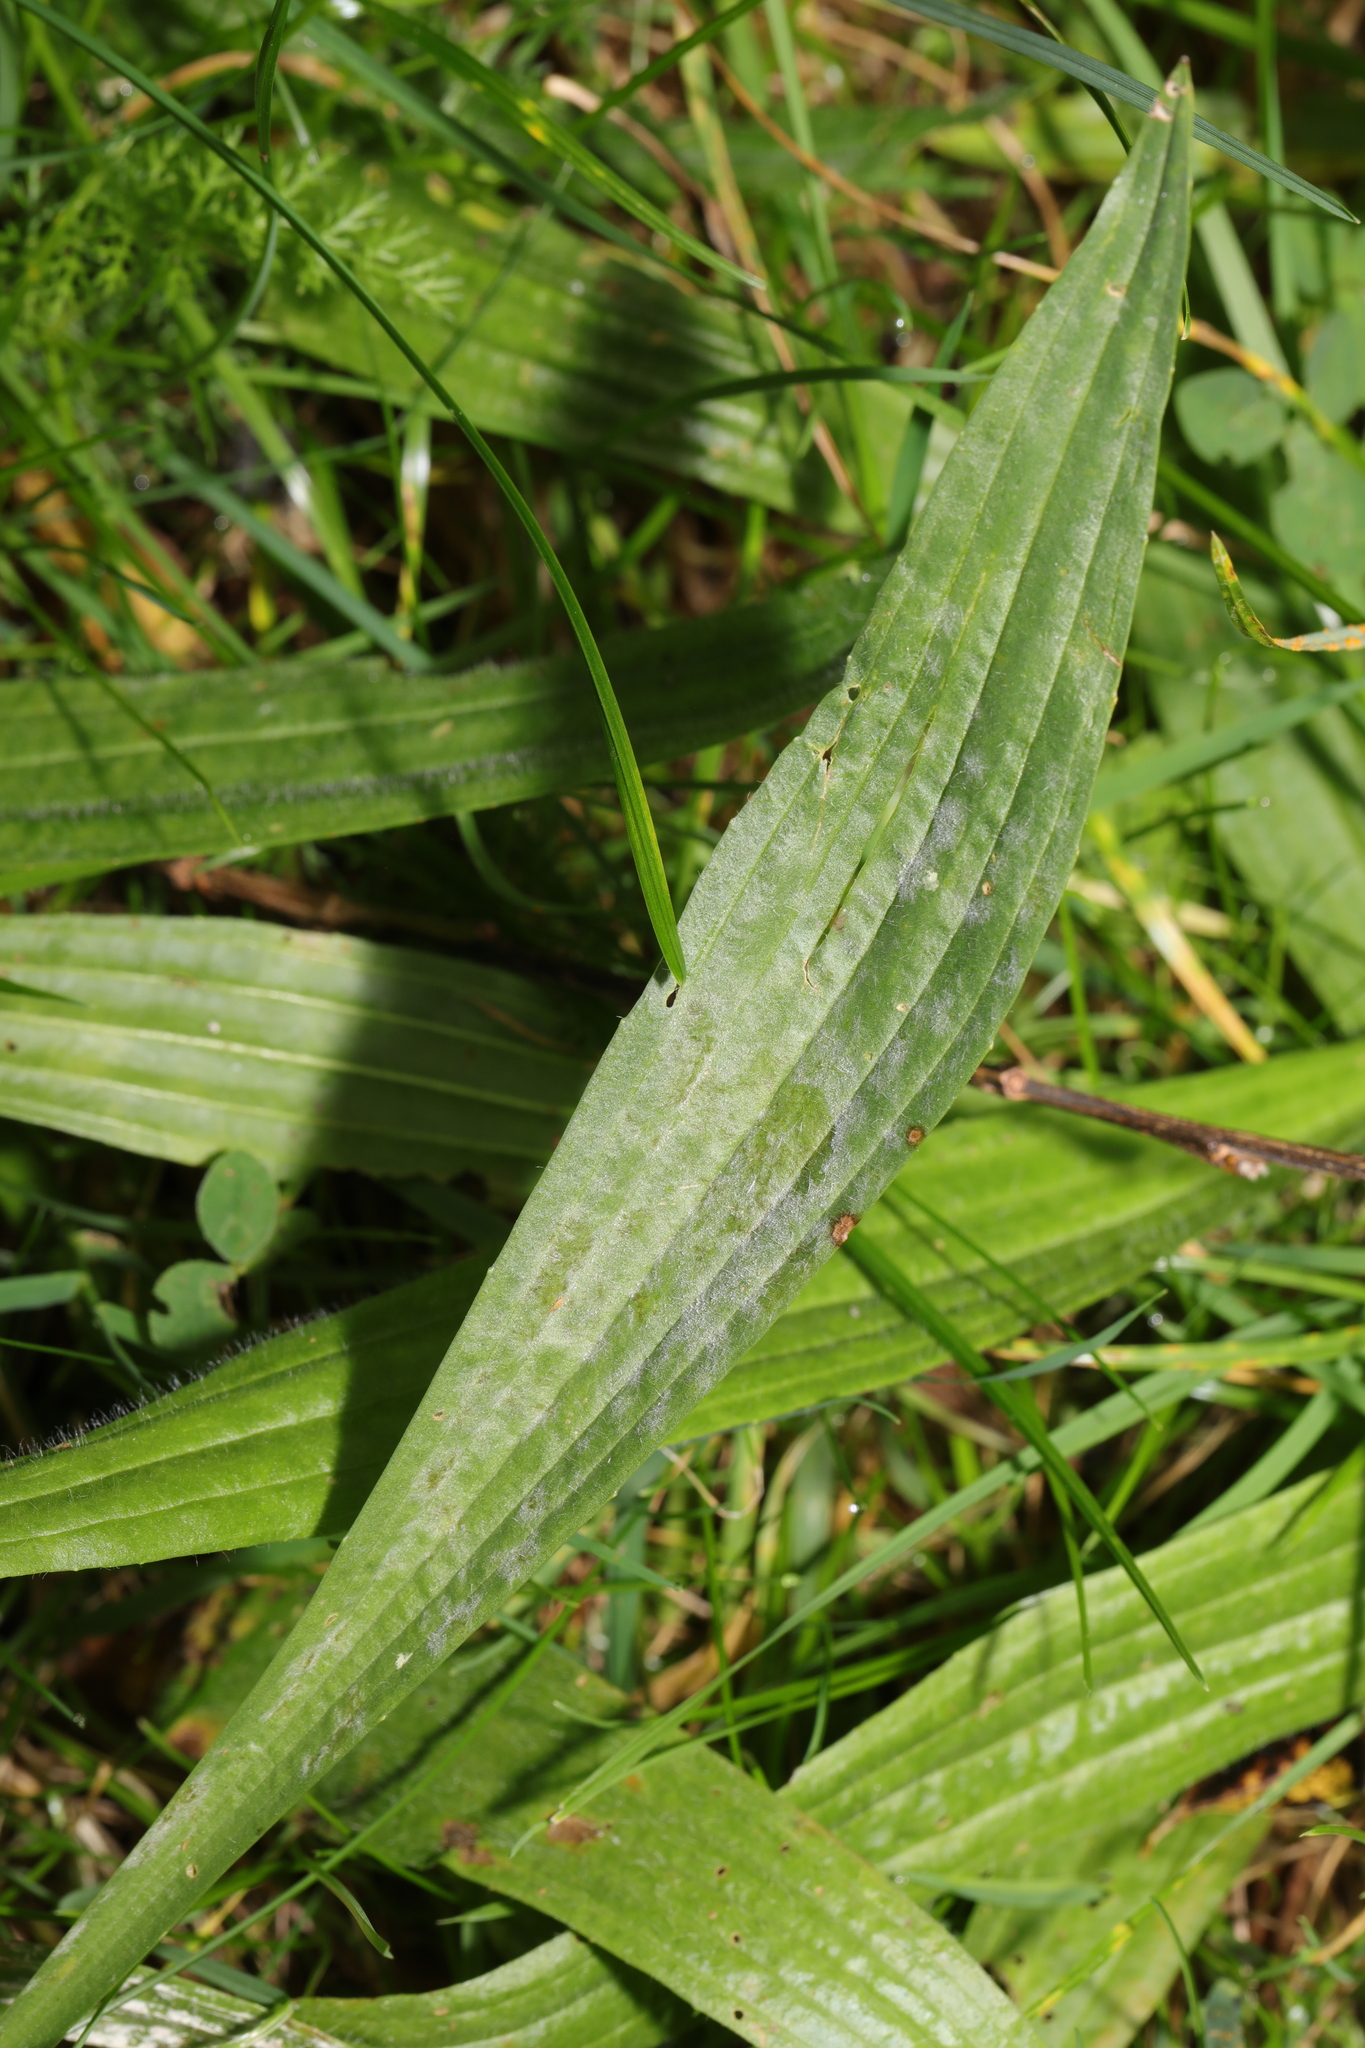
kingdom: Plantae
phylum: Tracheophyta
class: Magnoliopsida
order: Lamiales
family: Plantaginaceae
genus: Plantago
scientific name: Plantago lanceolata
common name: Ribwort plantain
